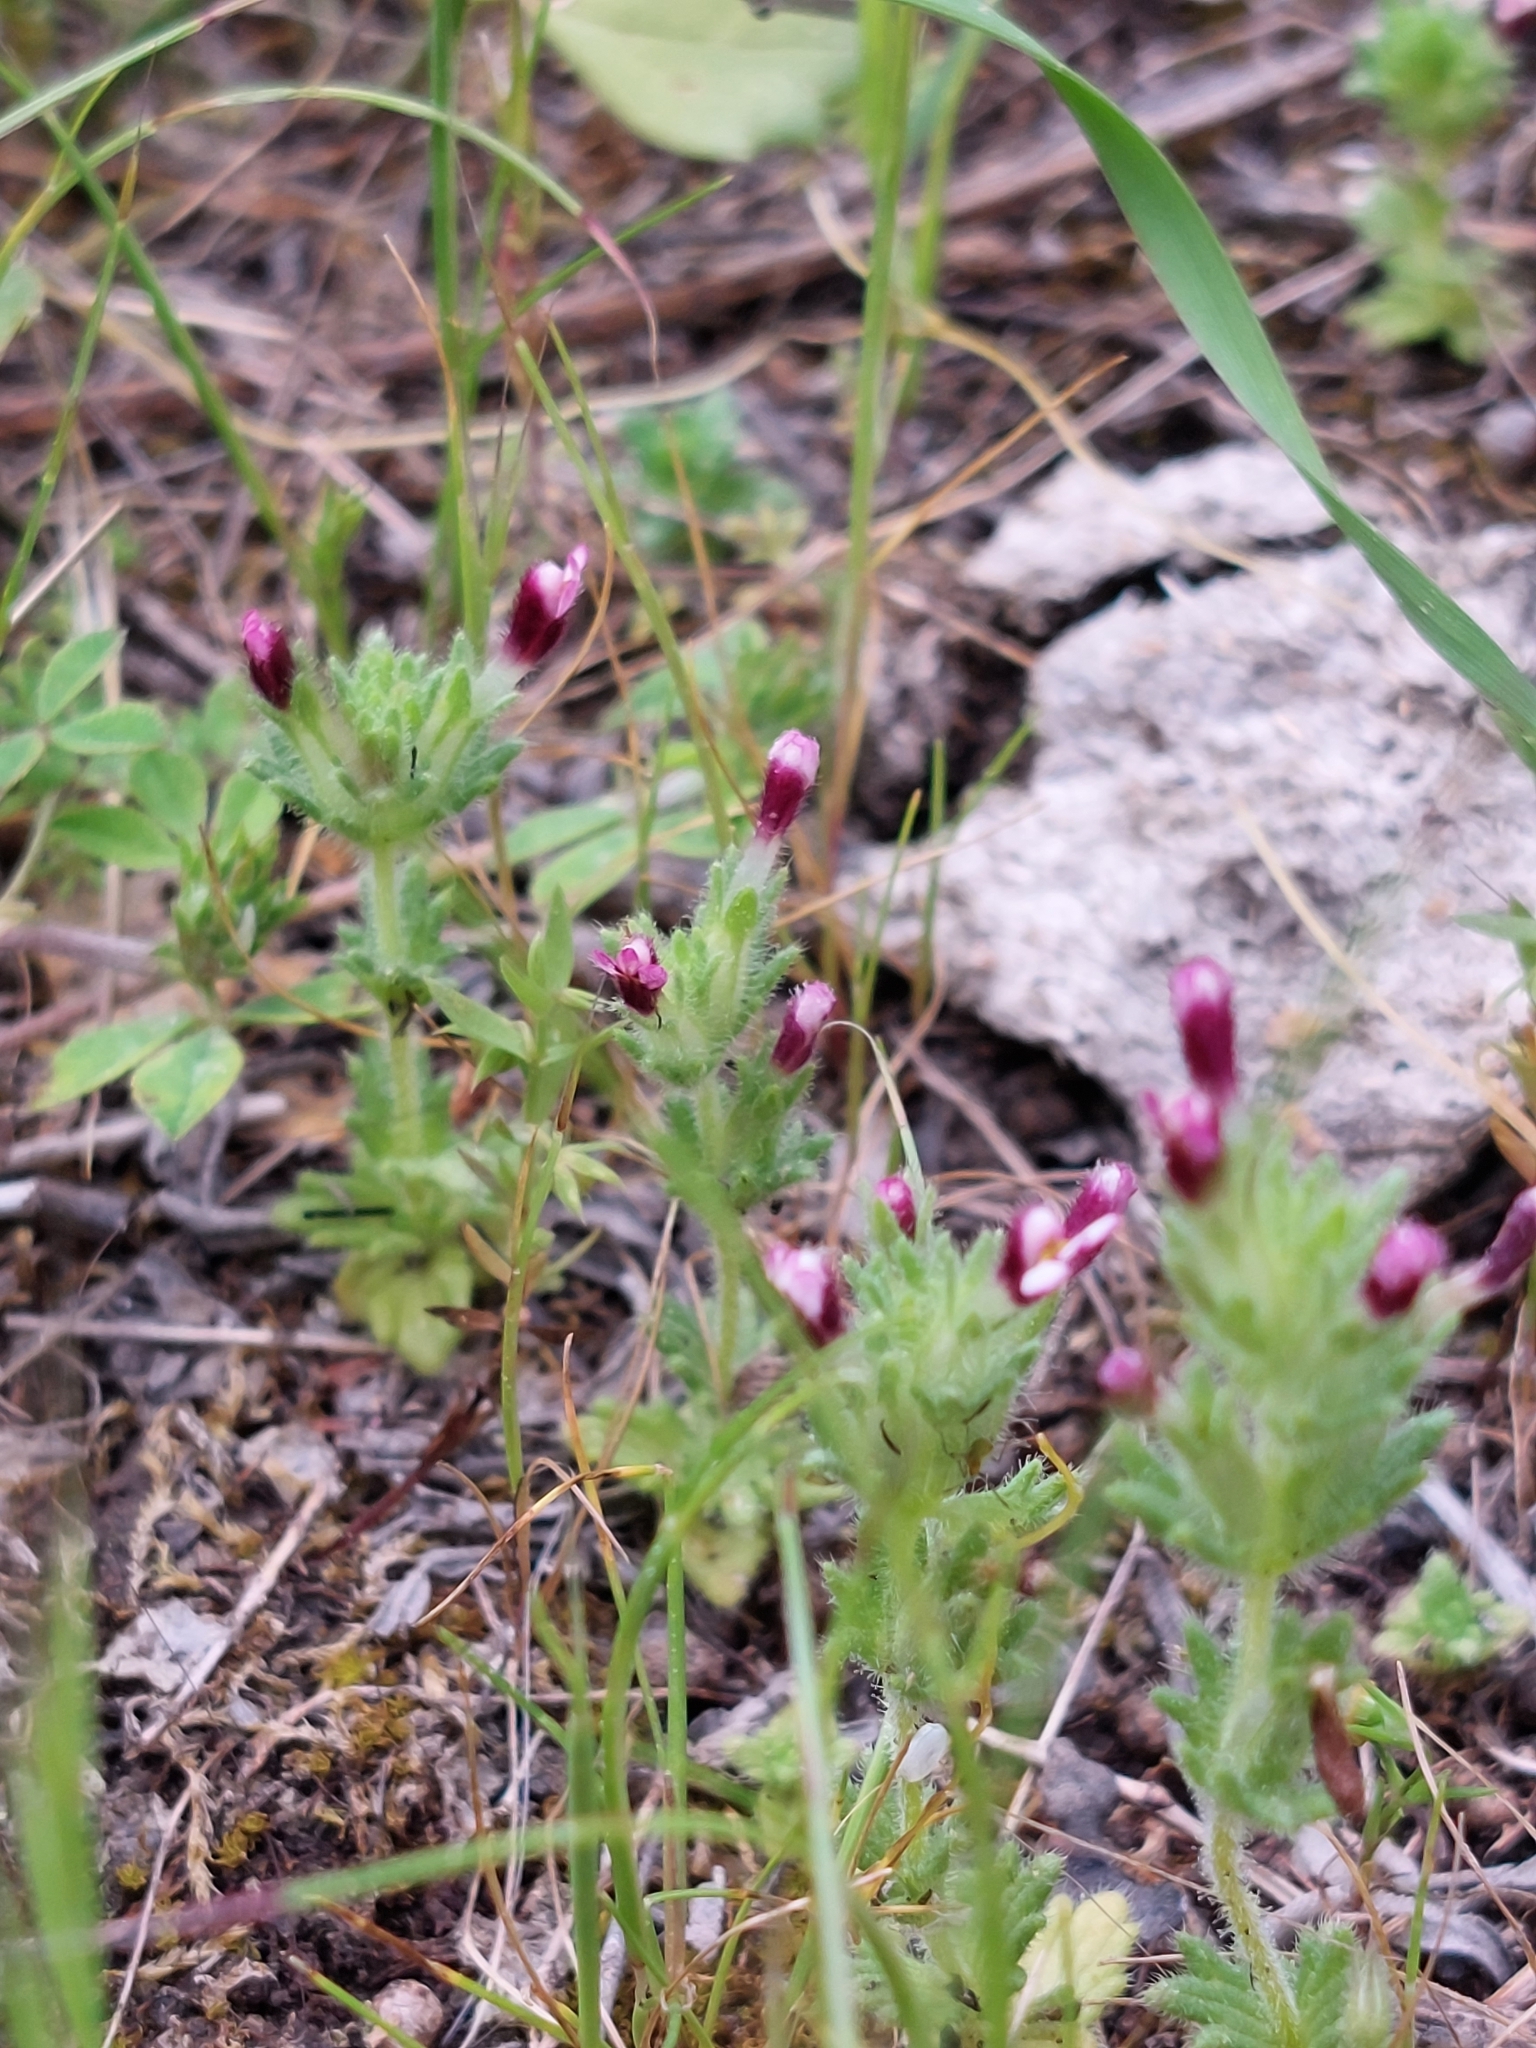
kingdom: Plantae
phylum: Tracheophyta
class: Magnoliopsida
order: Lamiales
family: Orobanchaceae
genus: Parentucellia
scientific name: Parentucellia latifolia
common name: Broadleaf glandweed
